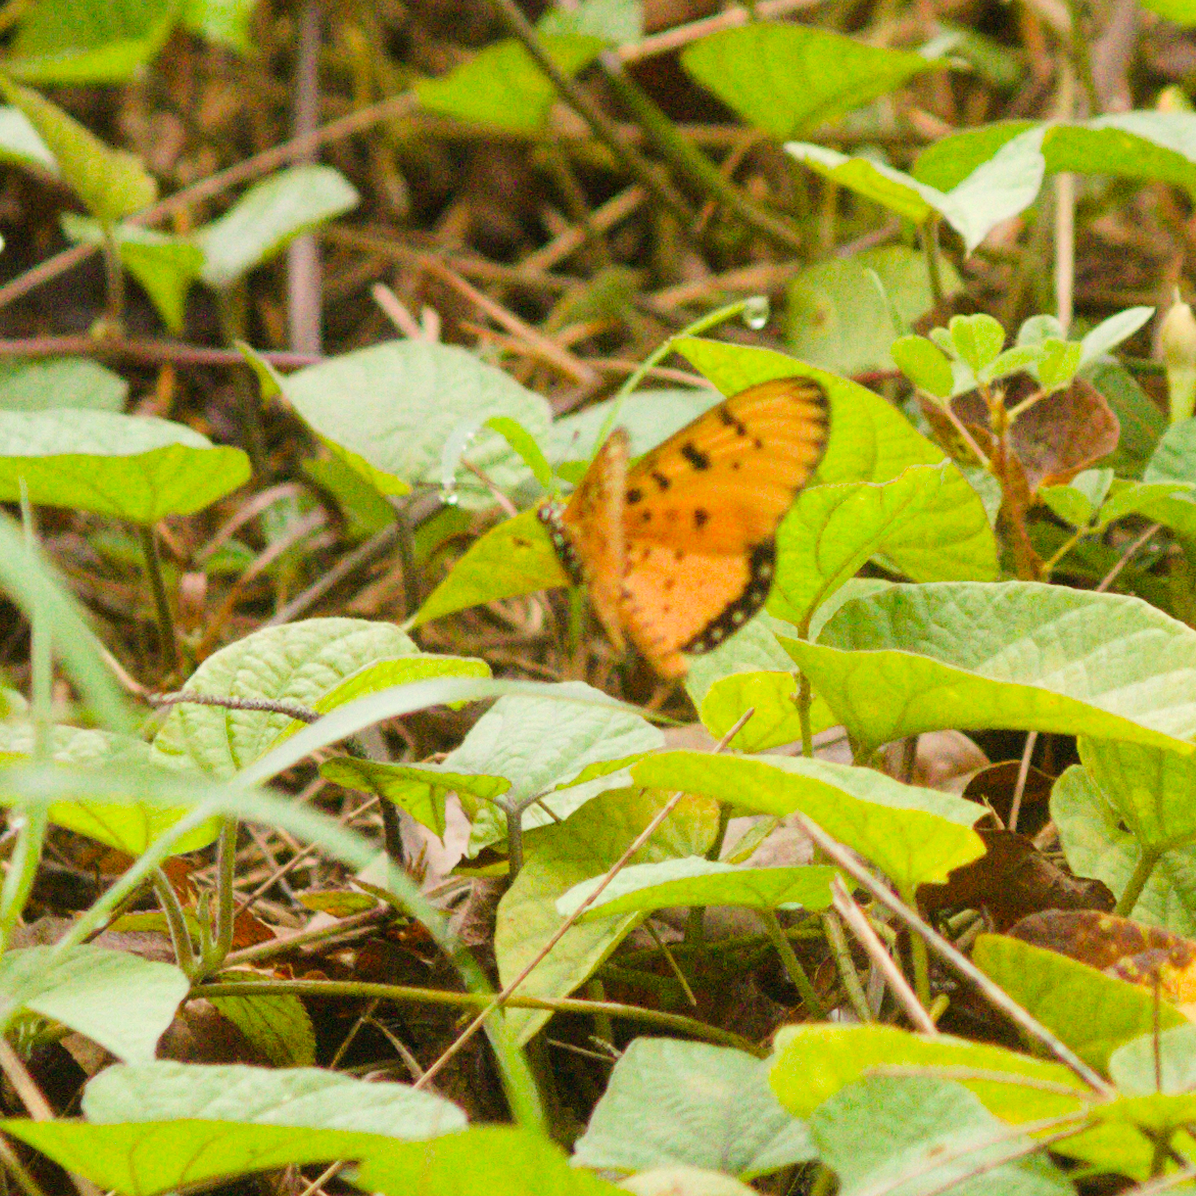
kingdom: Animalia
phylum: Arthropoda
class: Insecta
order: Lepidoptera
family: Nymphalidae
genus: Acraea
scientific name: Acraea terpsicore
